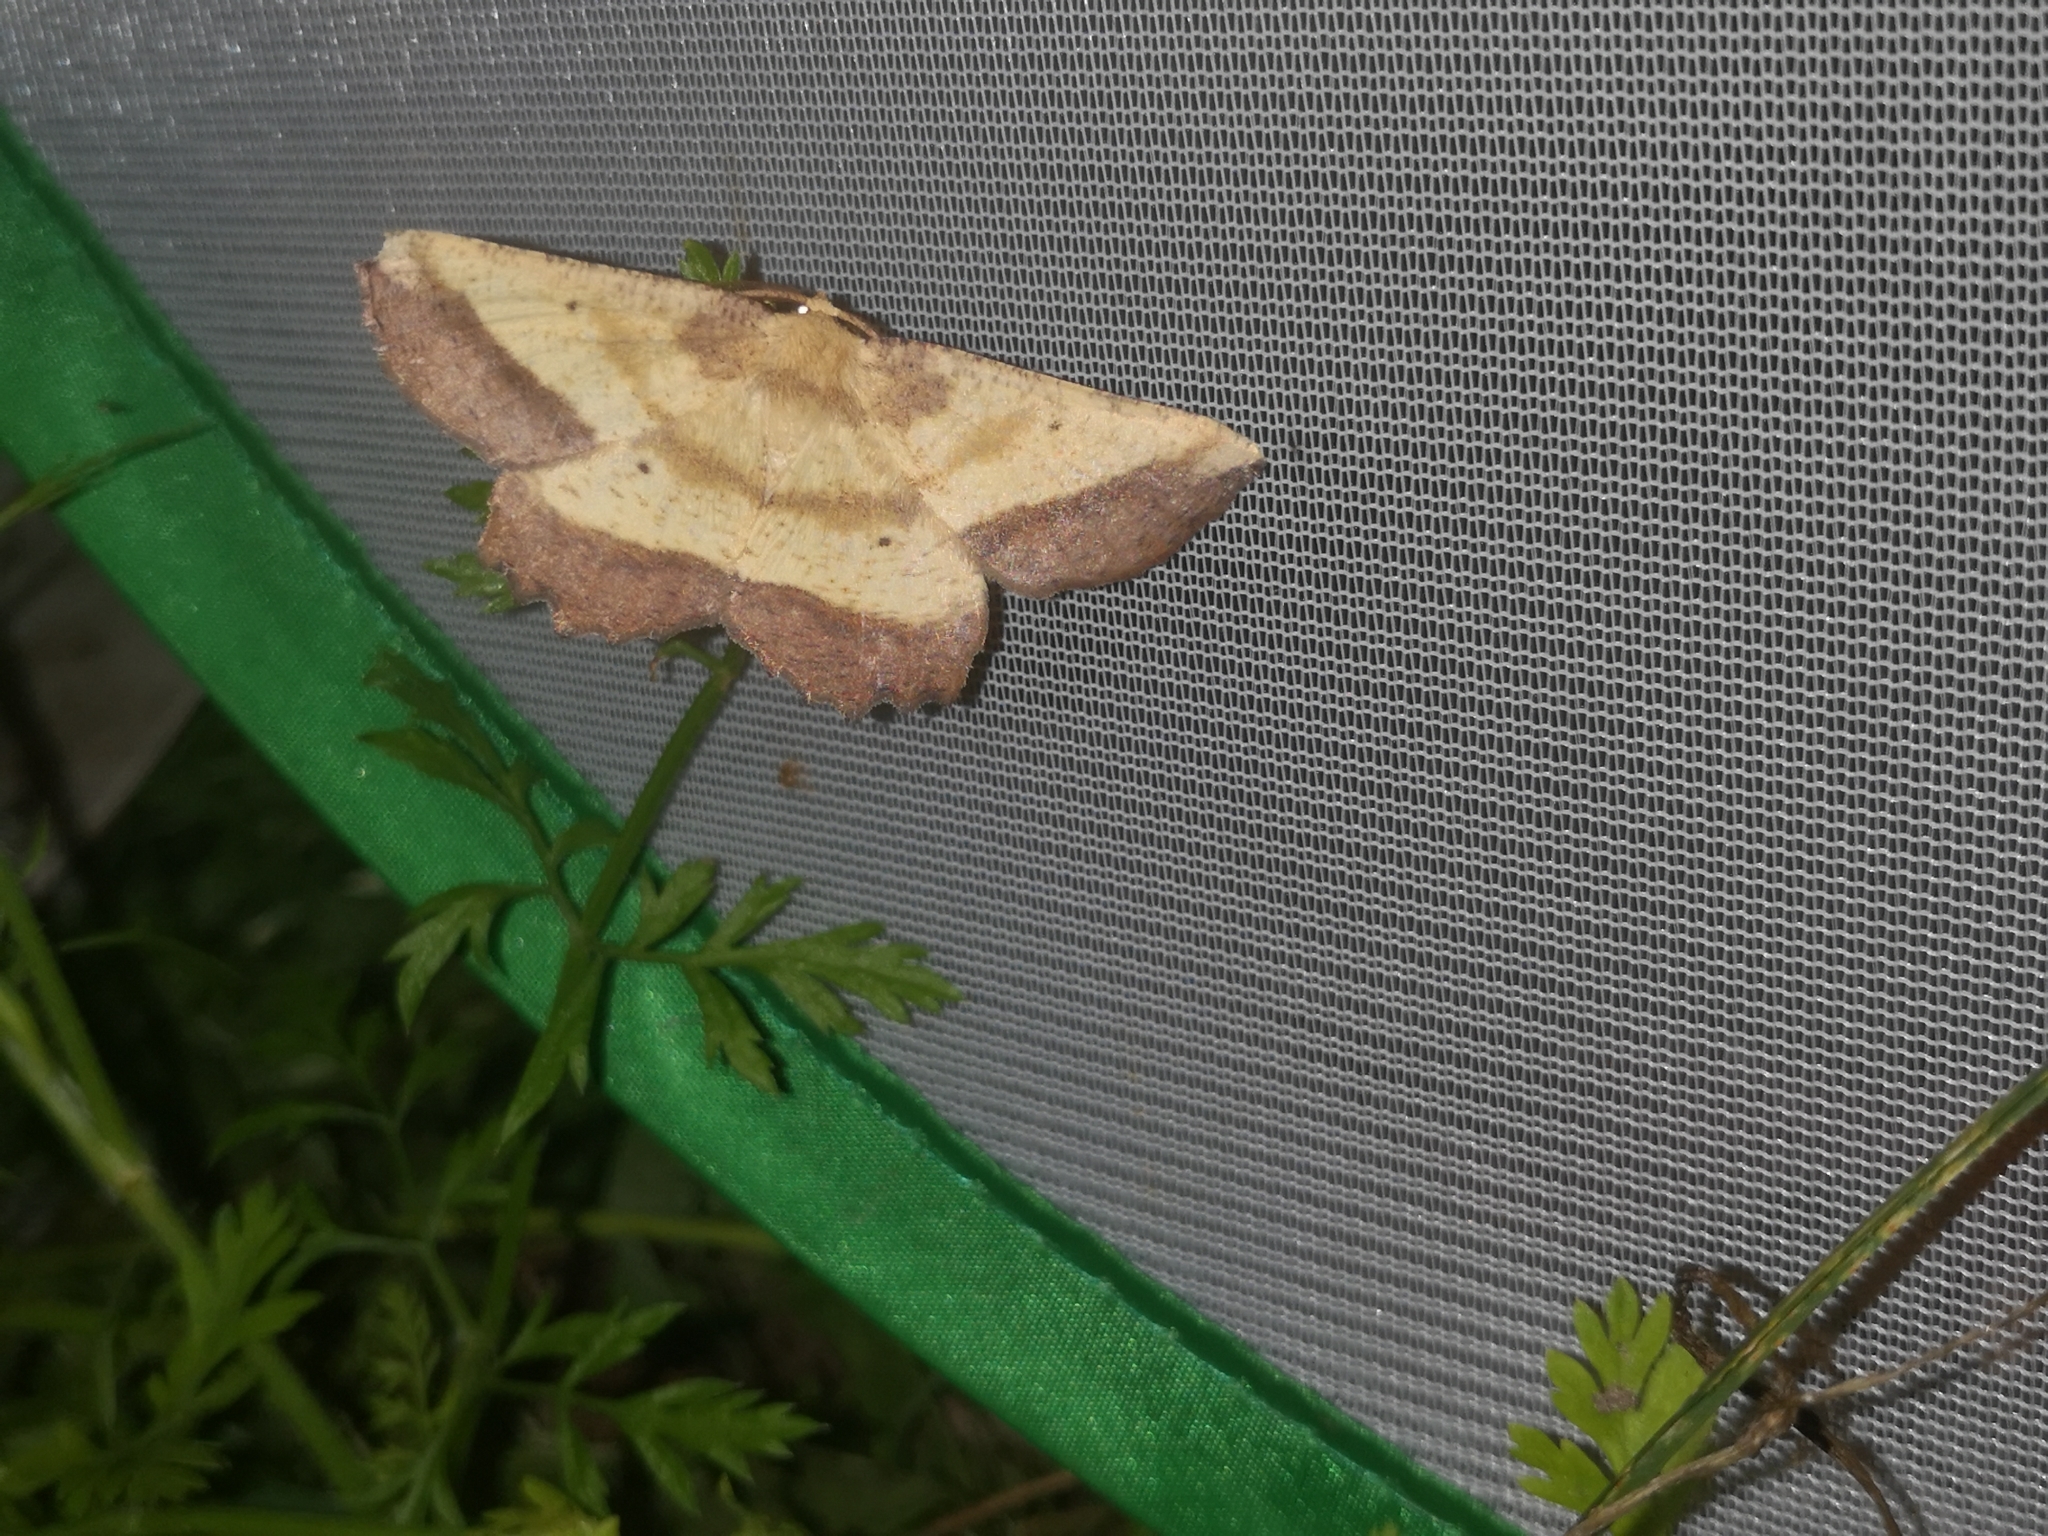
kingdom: Animalia
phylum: Arthropoda
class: Insecta
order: Lepidoptera
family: Geometridae
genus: Euchlaena
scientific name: Euchlaena serrata
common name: Saw wing
